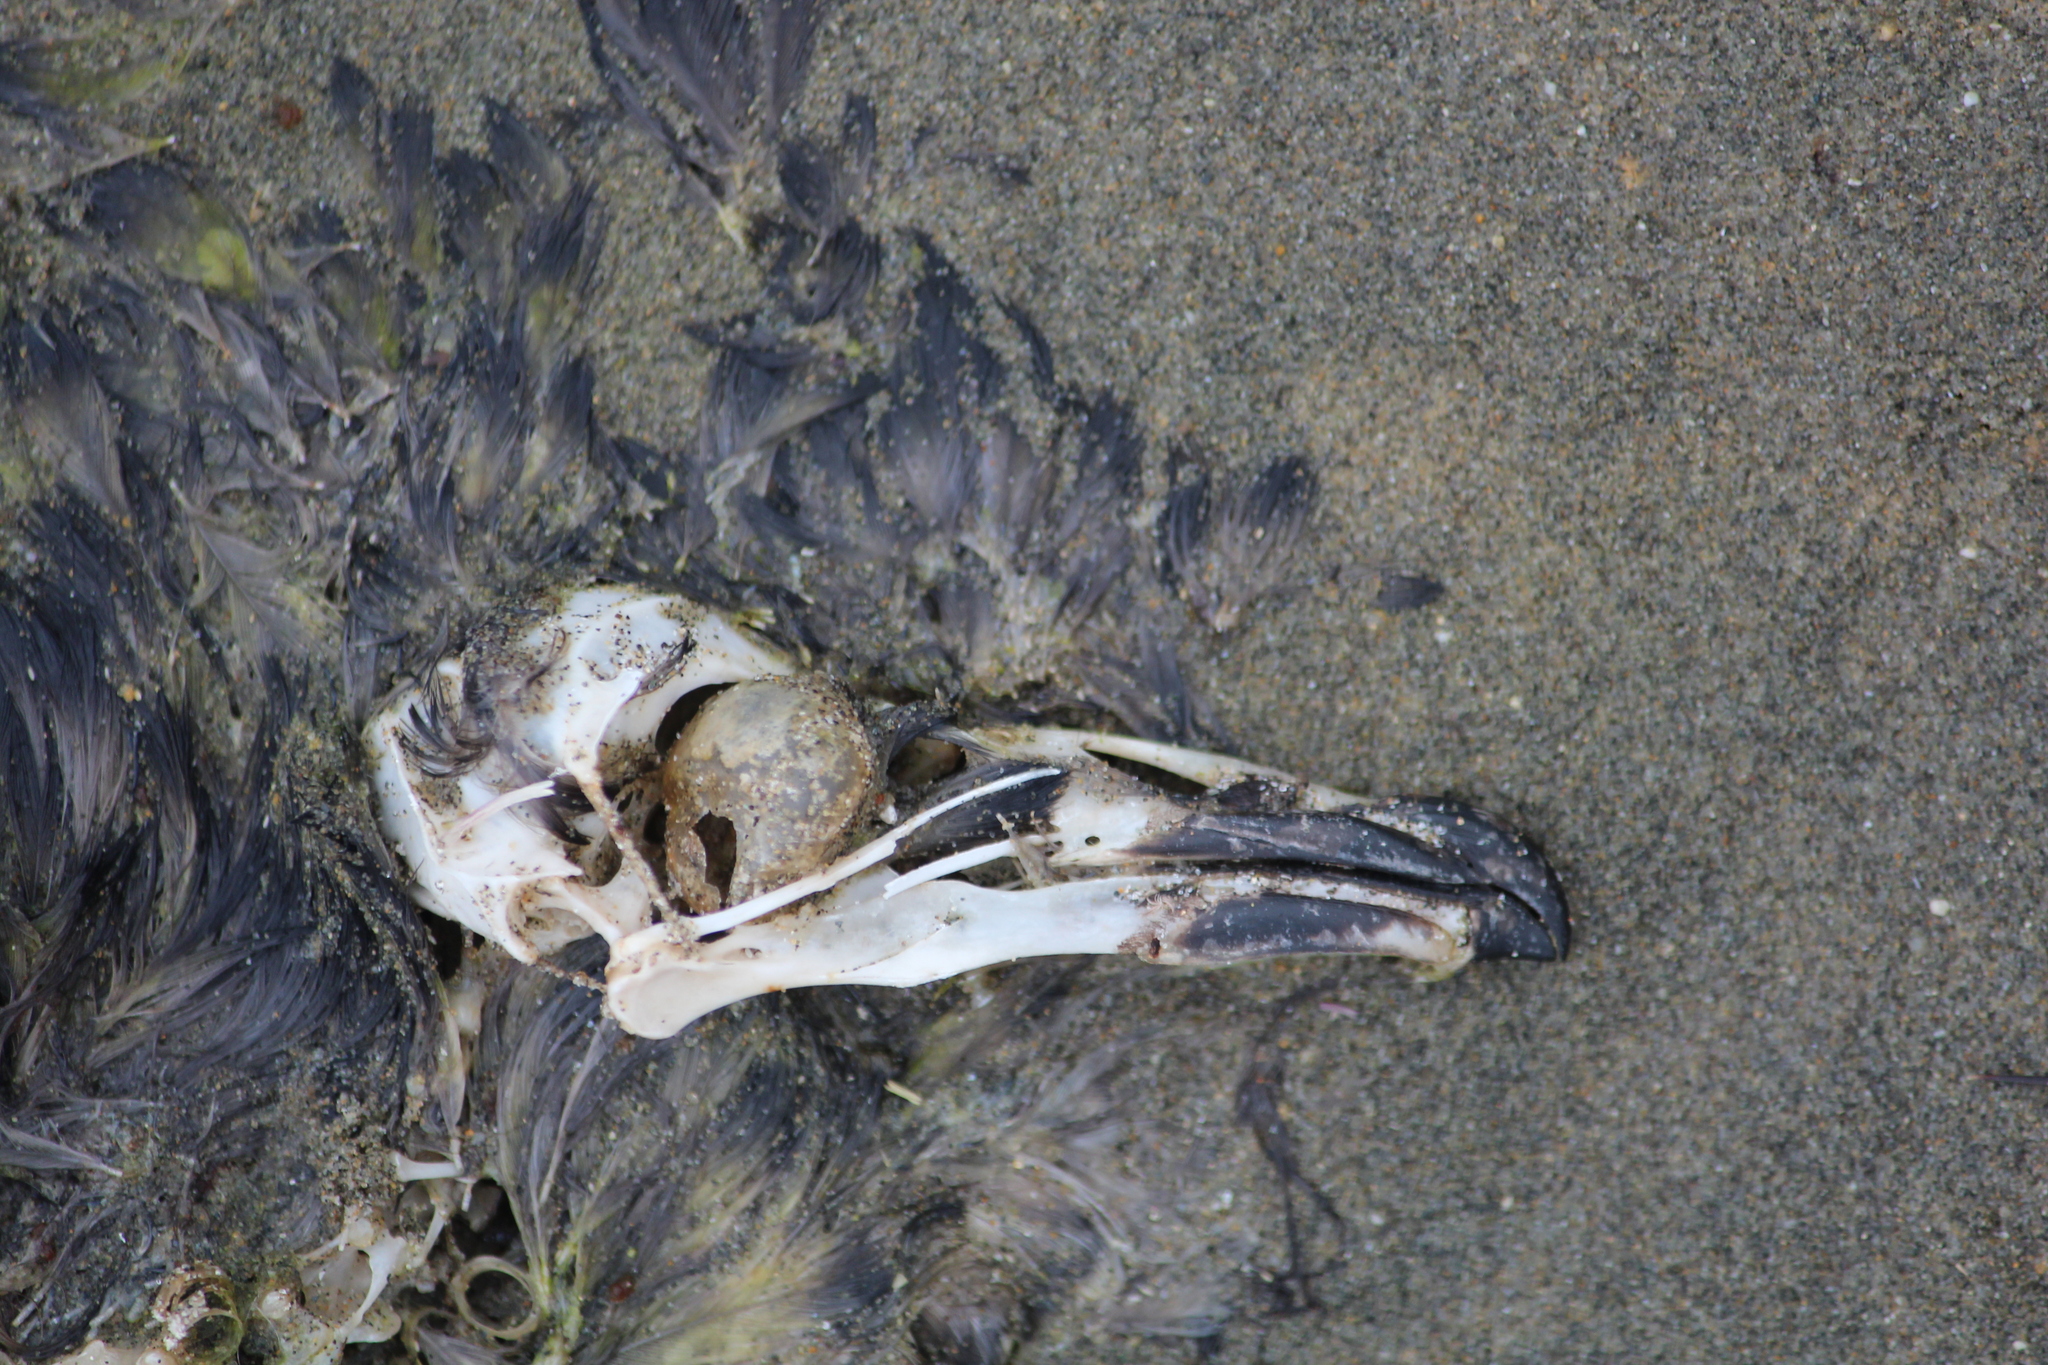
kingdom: Animalia
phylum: Chordata
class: Aves
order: Procellariiformes
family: Pelecanoididae
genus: Pelecanoides
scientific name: Pelecanoides urinatrix
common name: Common diving-petrel
